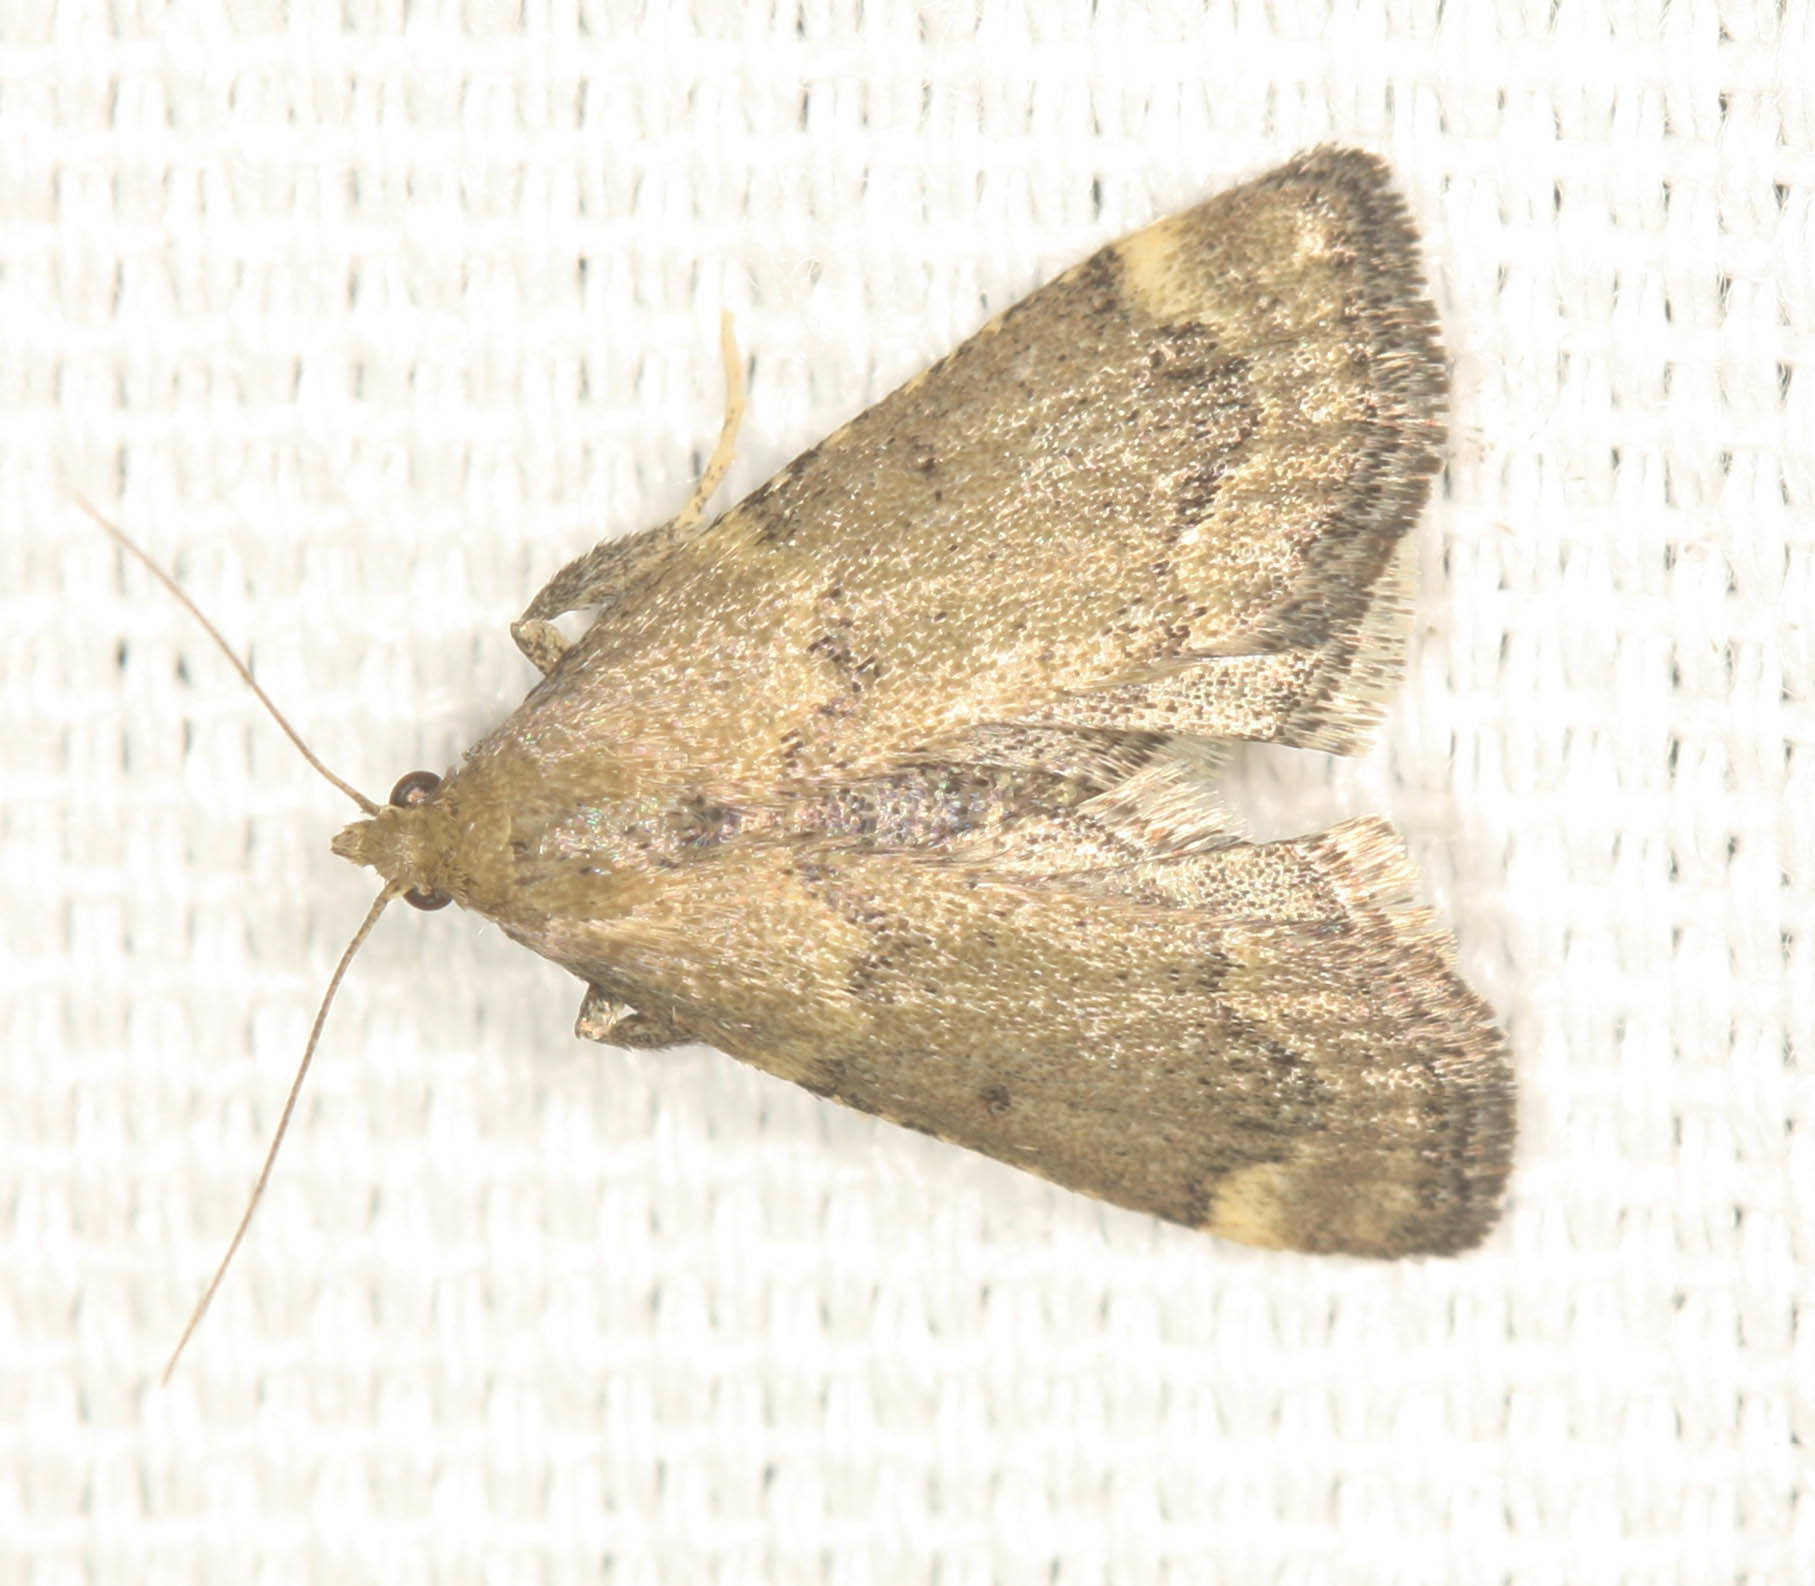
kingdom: Animalia
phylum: Arthropoda
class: Insecta
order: Lepidoptera
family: Pyralidae
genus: Hypsopygia
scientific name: Hypsopygia phoezalis
